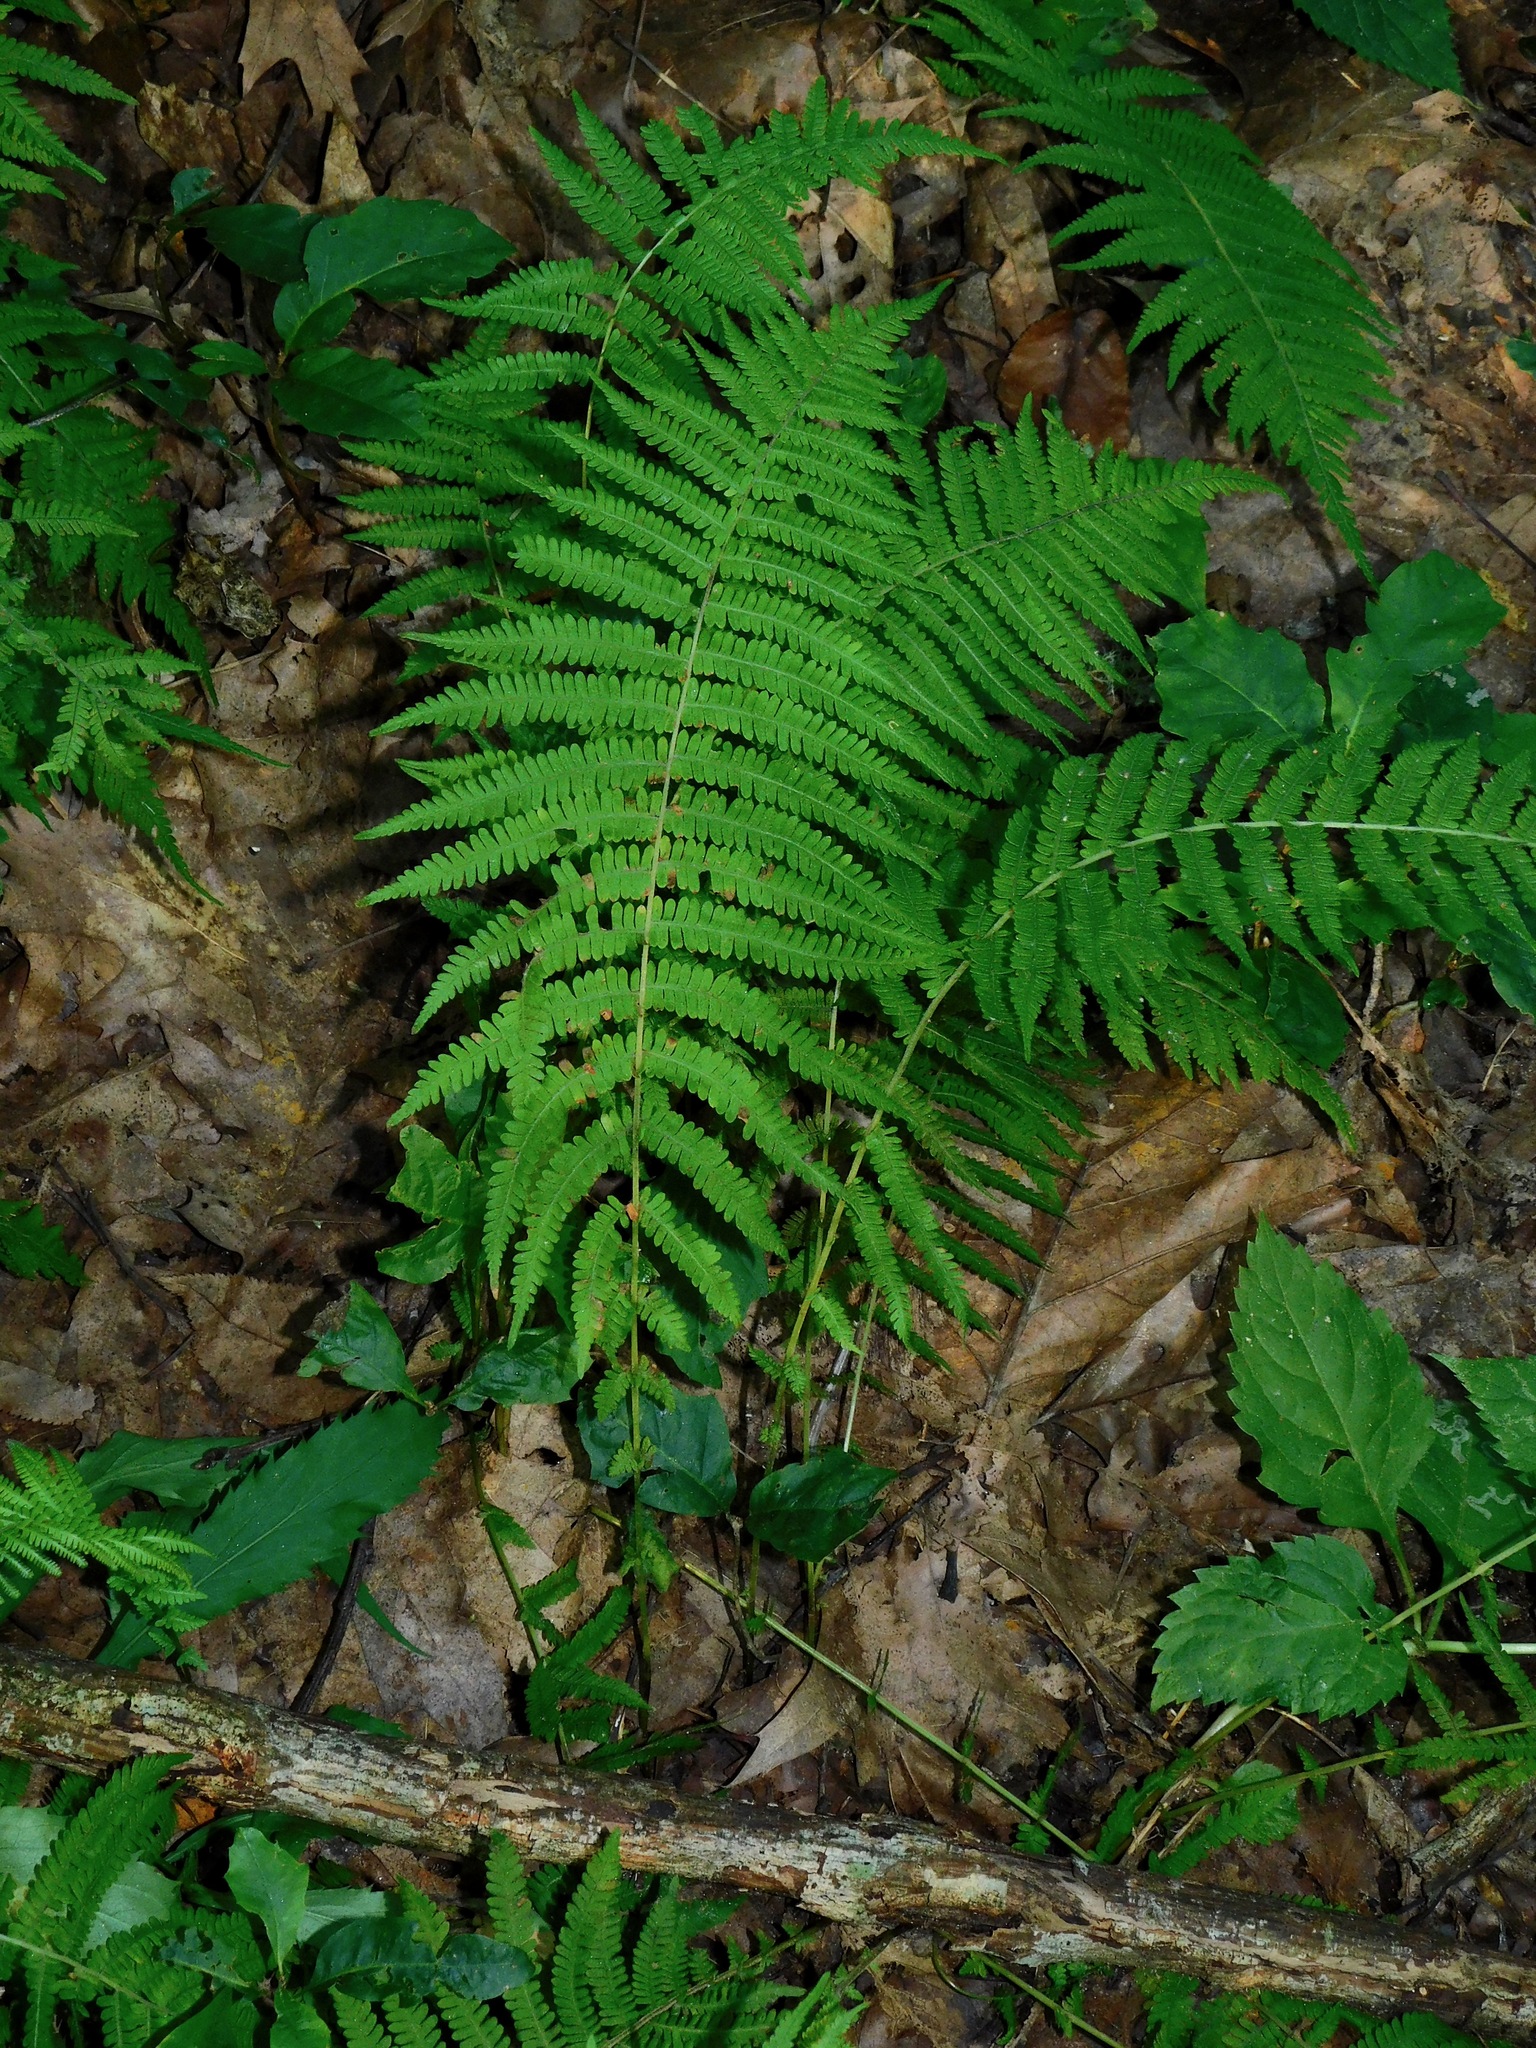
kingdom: Plantae
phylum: Tracheophyta
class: Polypodiopsida
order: Polypodiales
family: Thelypteridaceae
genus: Amauropelta
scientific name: Amauropelta noveboracensis
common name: New york fern
